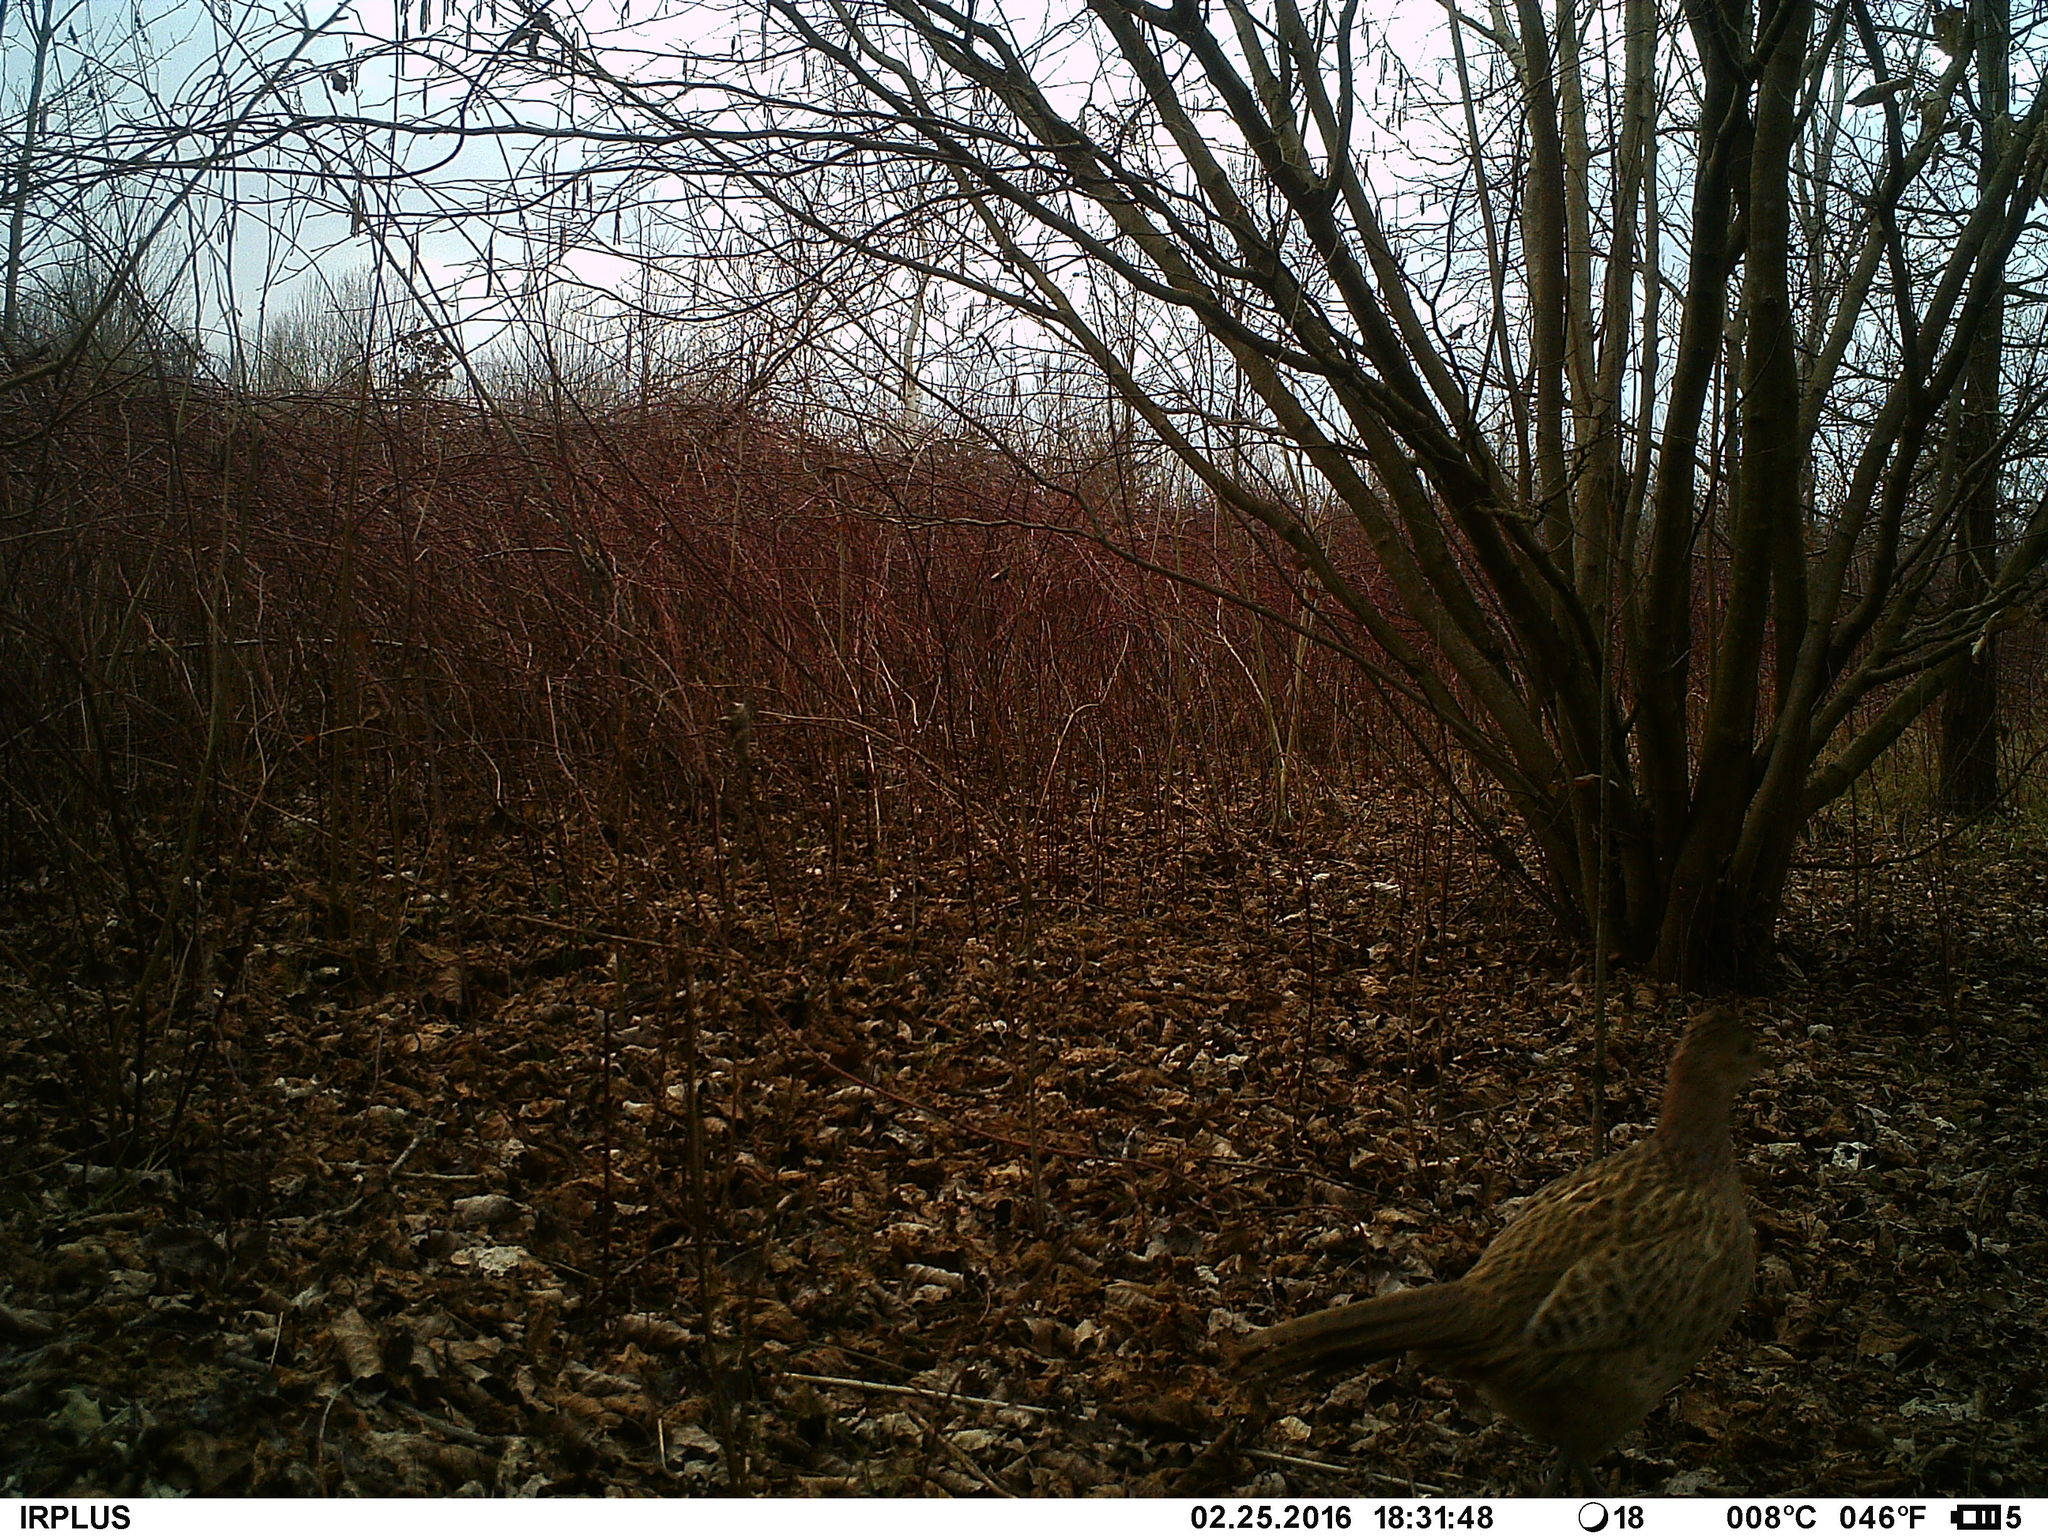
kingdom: Animalia
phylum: Chordata
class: Aves
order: Galliformes
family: Phasianidae
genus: Phasianus
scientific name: Phasianus colchicus
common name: Common pheasant
